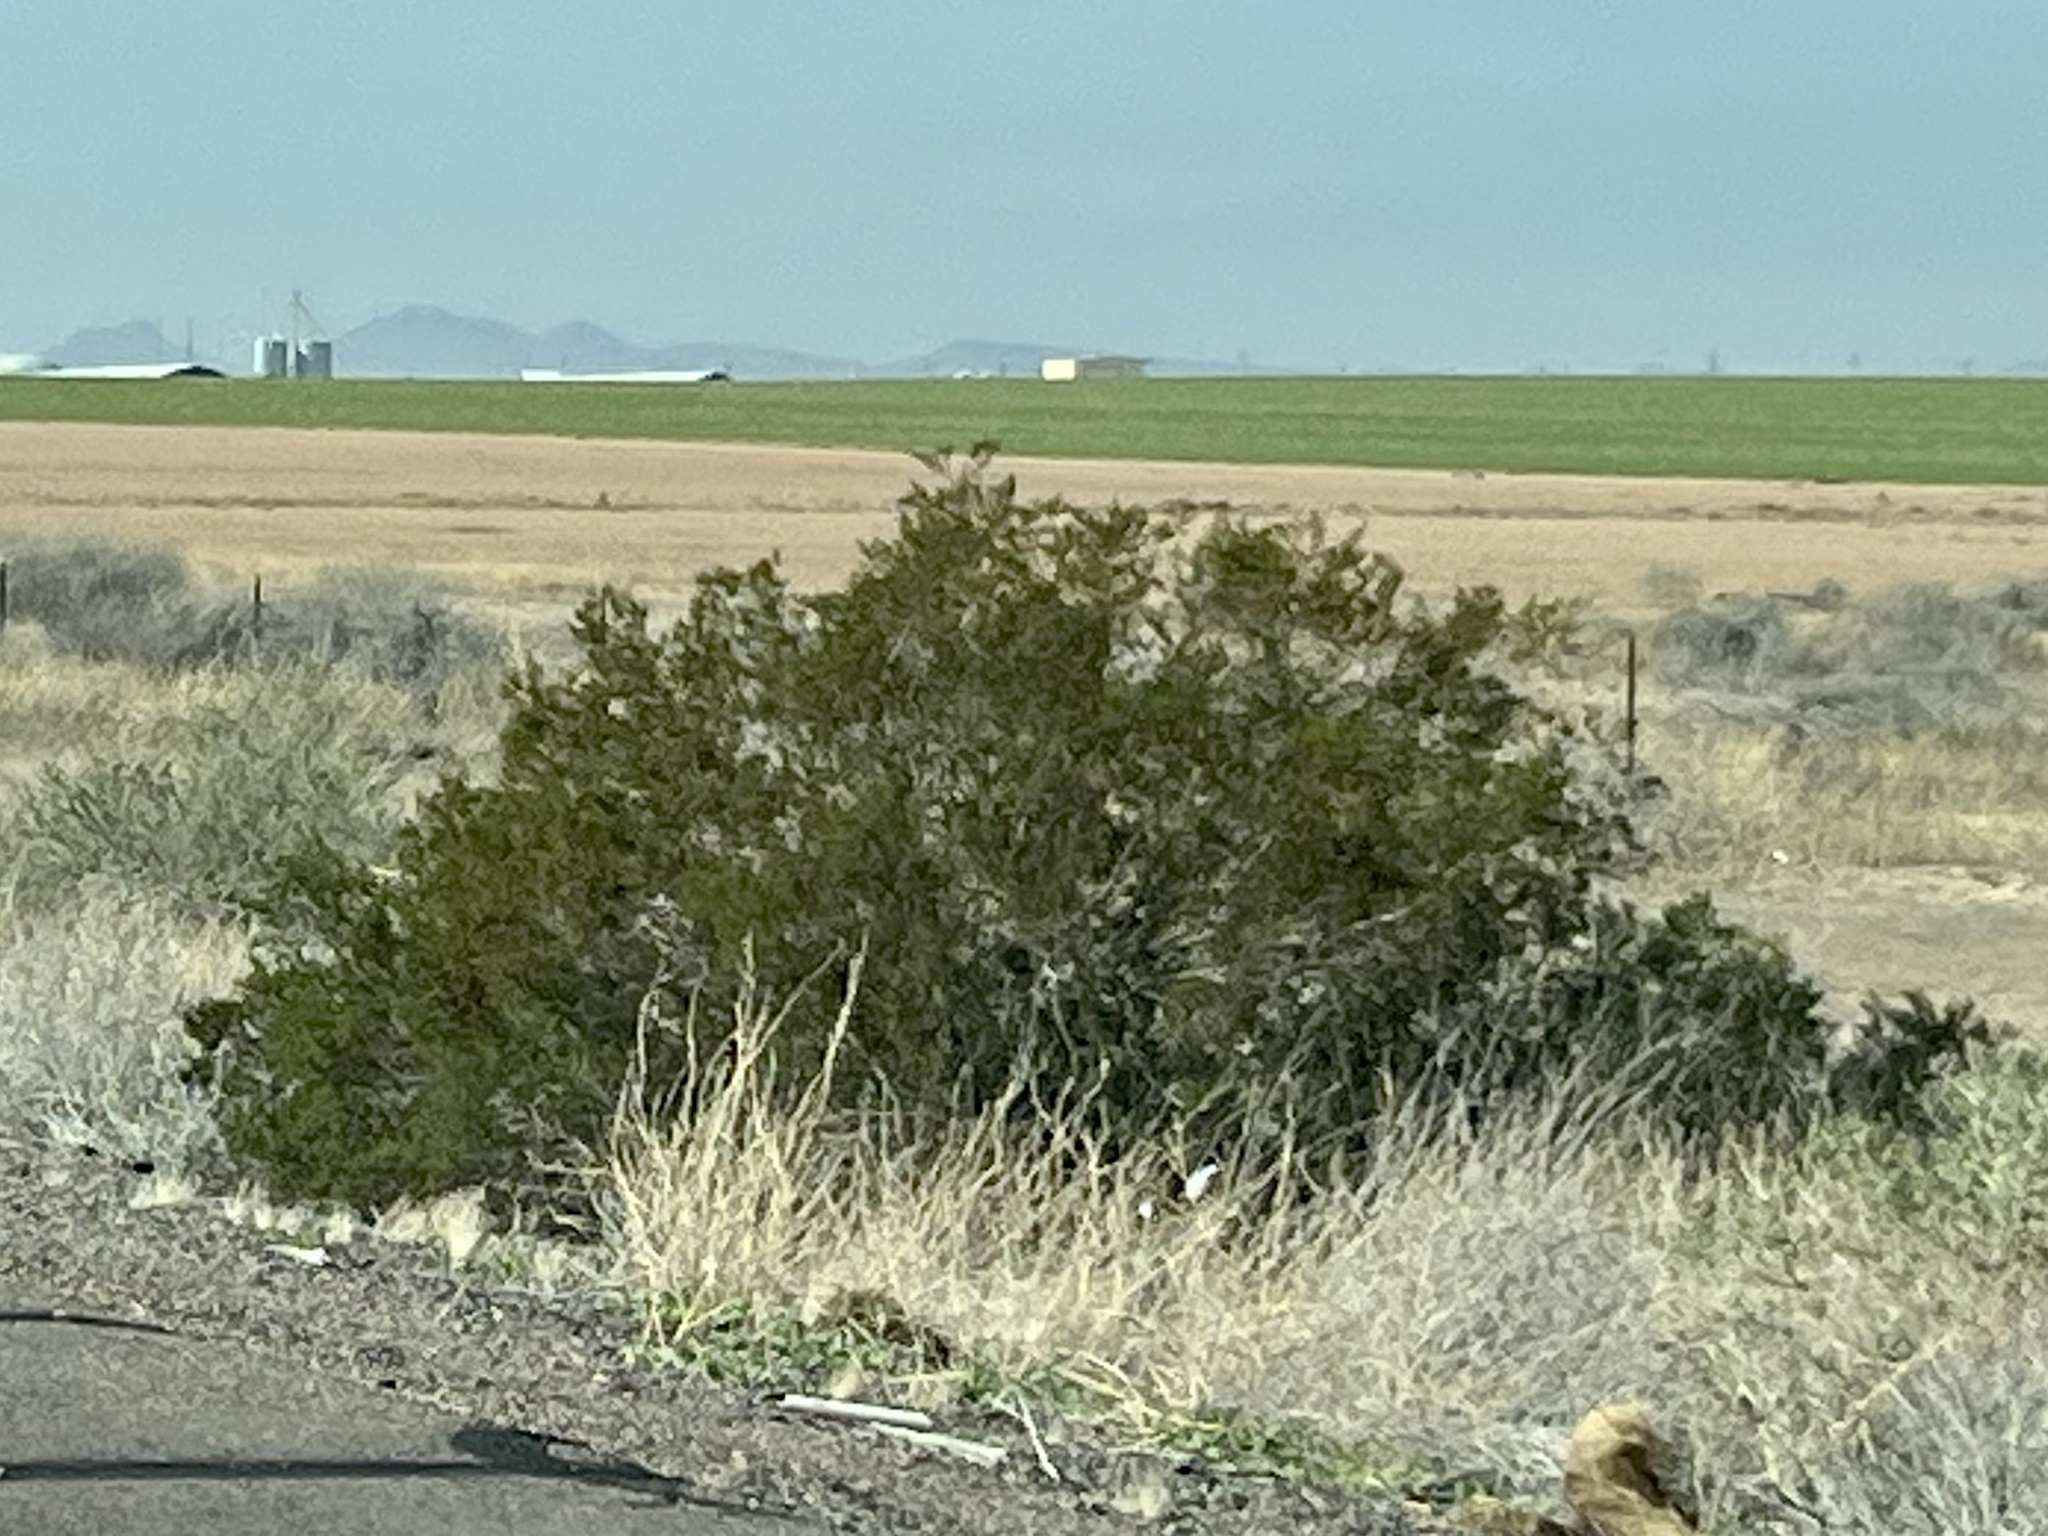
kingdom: Plantae
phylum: Tracheophyta
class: Magnoliopsida
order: Zygophyllales
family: Zygophyllaceae
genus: Larrea
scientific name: Larrea tridentata
